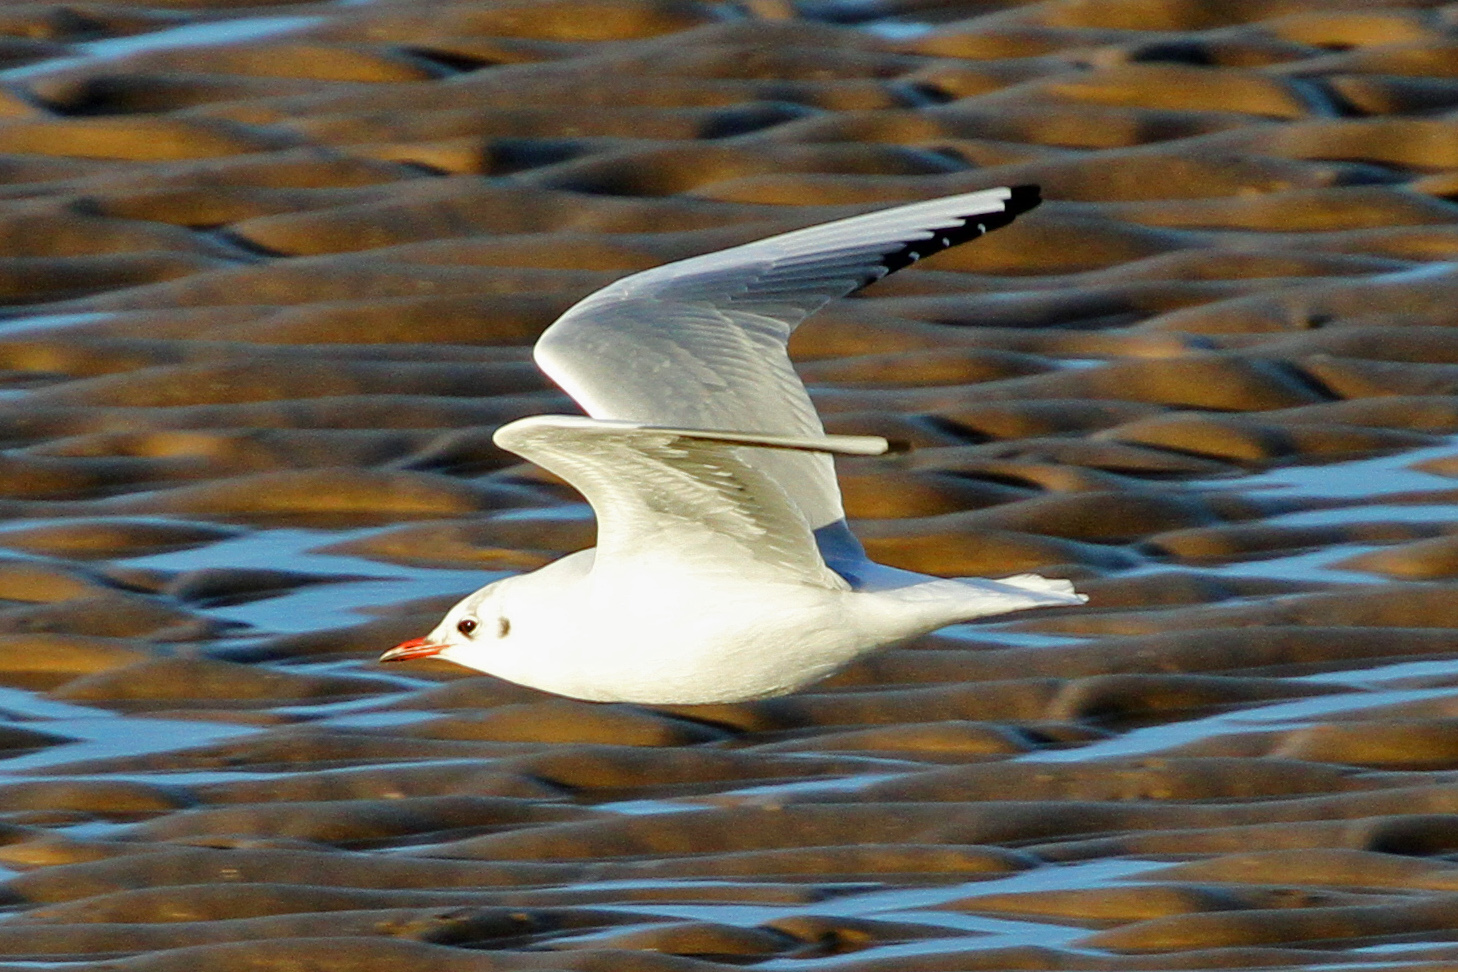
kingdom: Animalia
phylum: Chordata
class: Aves
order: Charadriiformes
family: Laridae
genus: Chroicocephalus
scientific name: Chroicocephalus ridibundus
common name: Black-headed gull
